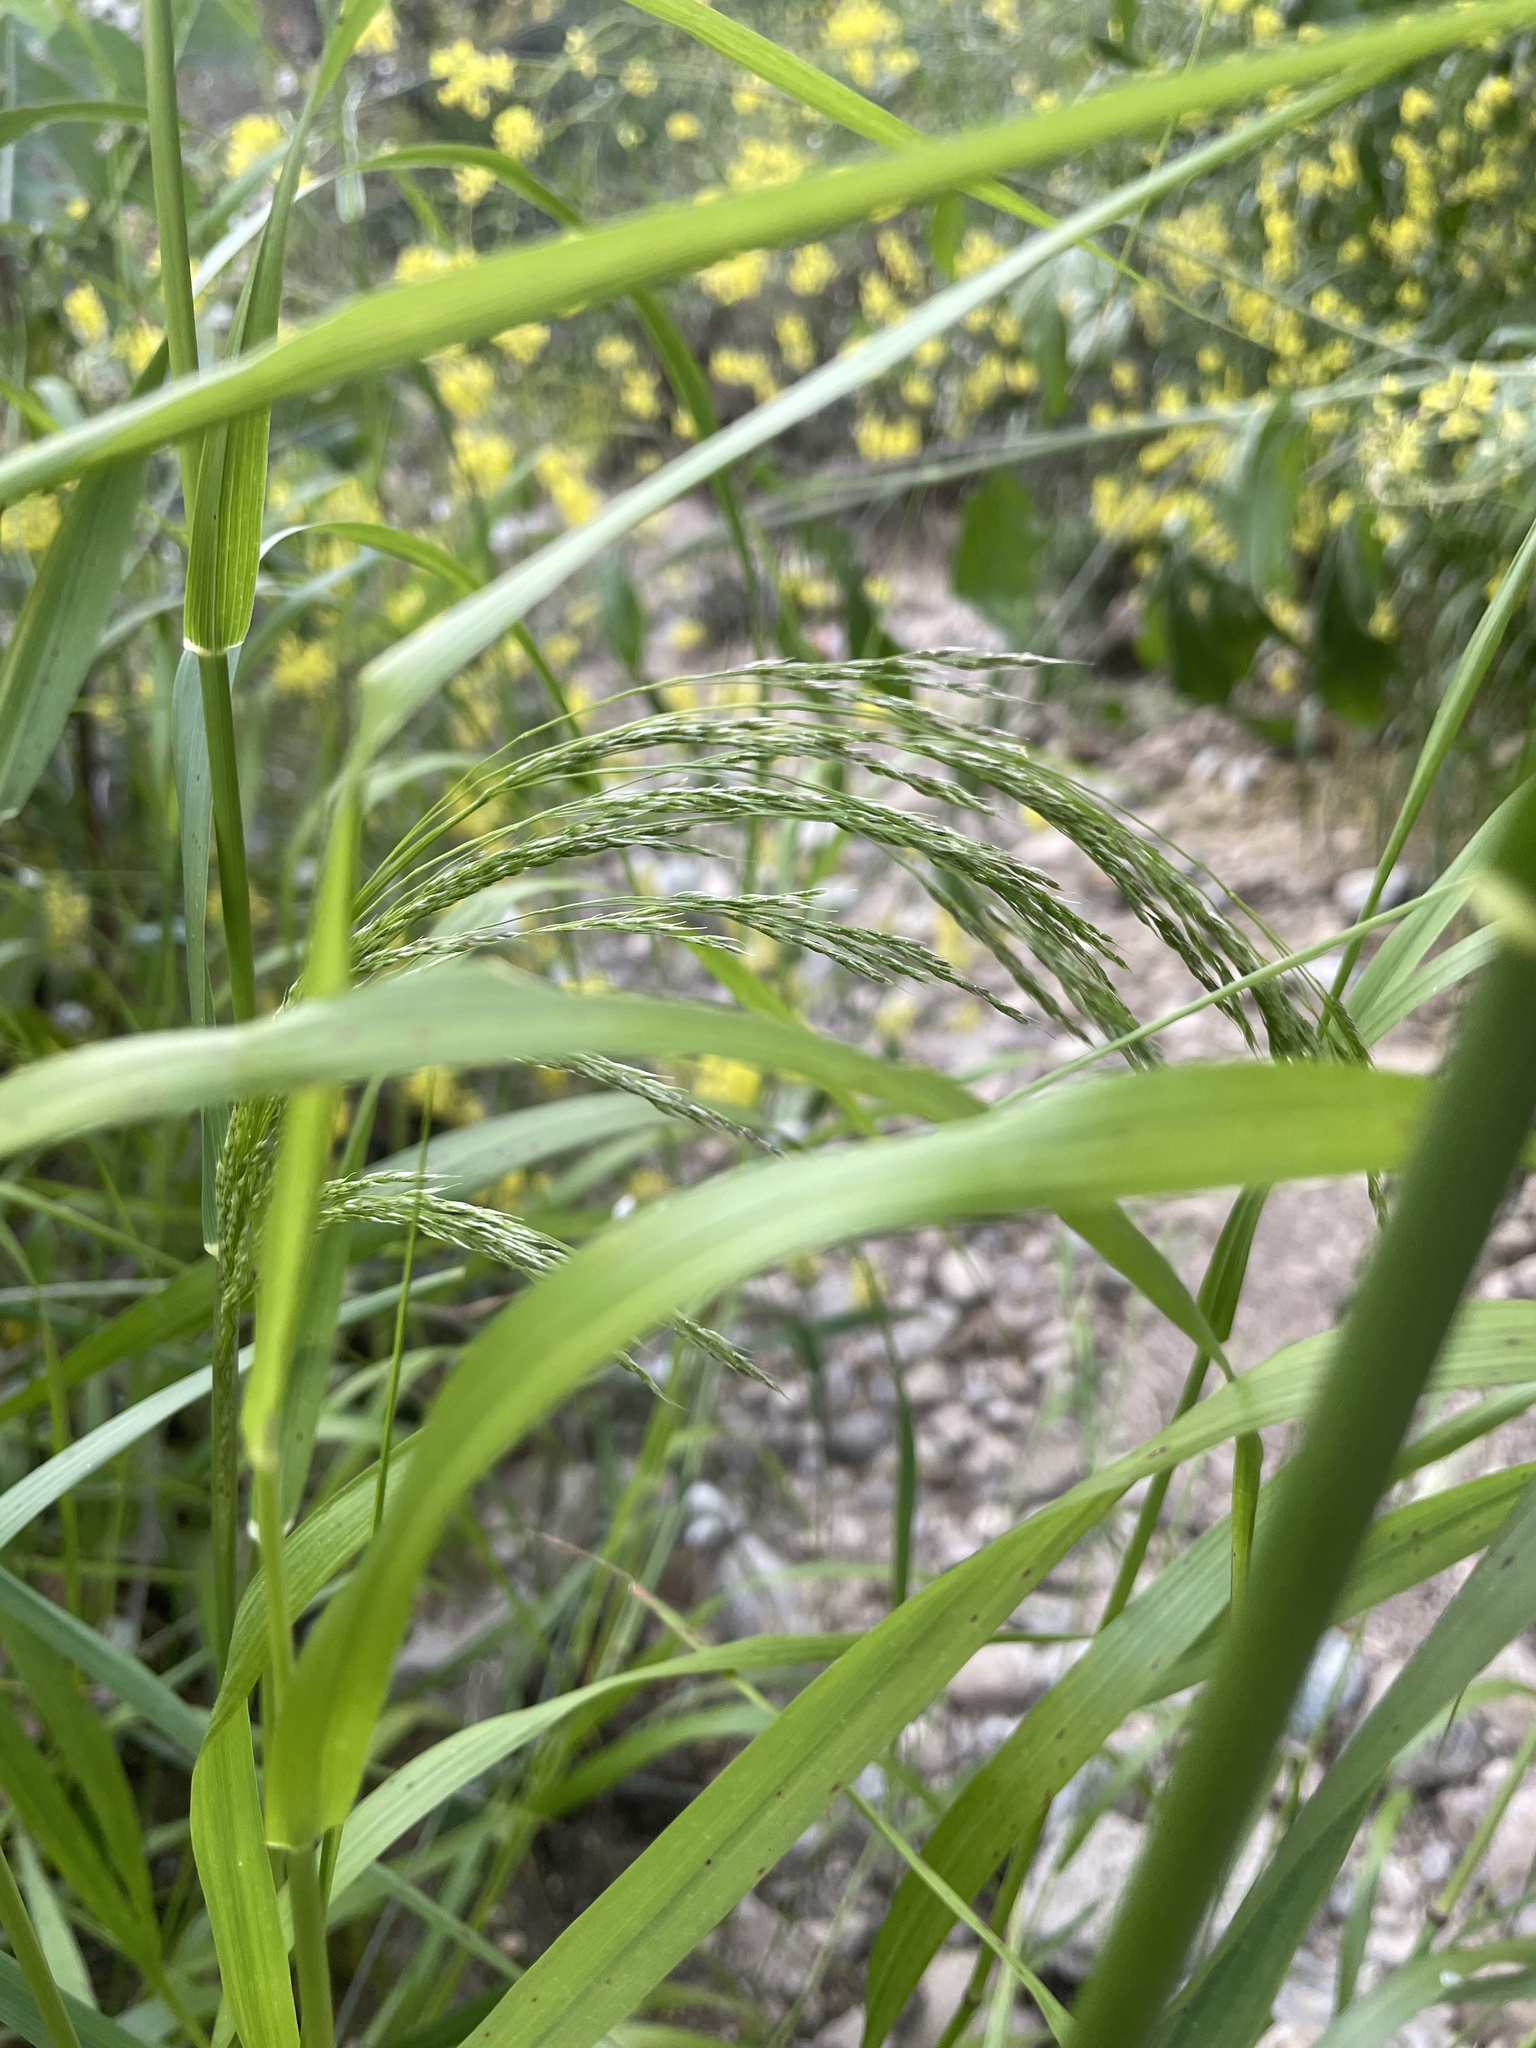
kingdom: Plantae
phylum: Tracheophyta
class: Liliopsida
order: Poales
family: Poaceae
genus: Oloptum
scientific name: Oloptum miliaceum
